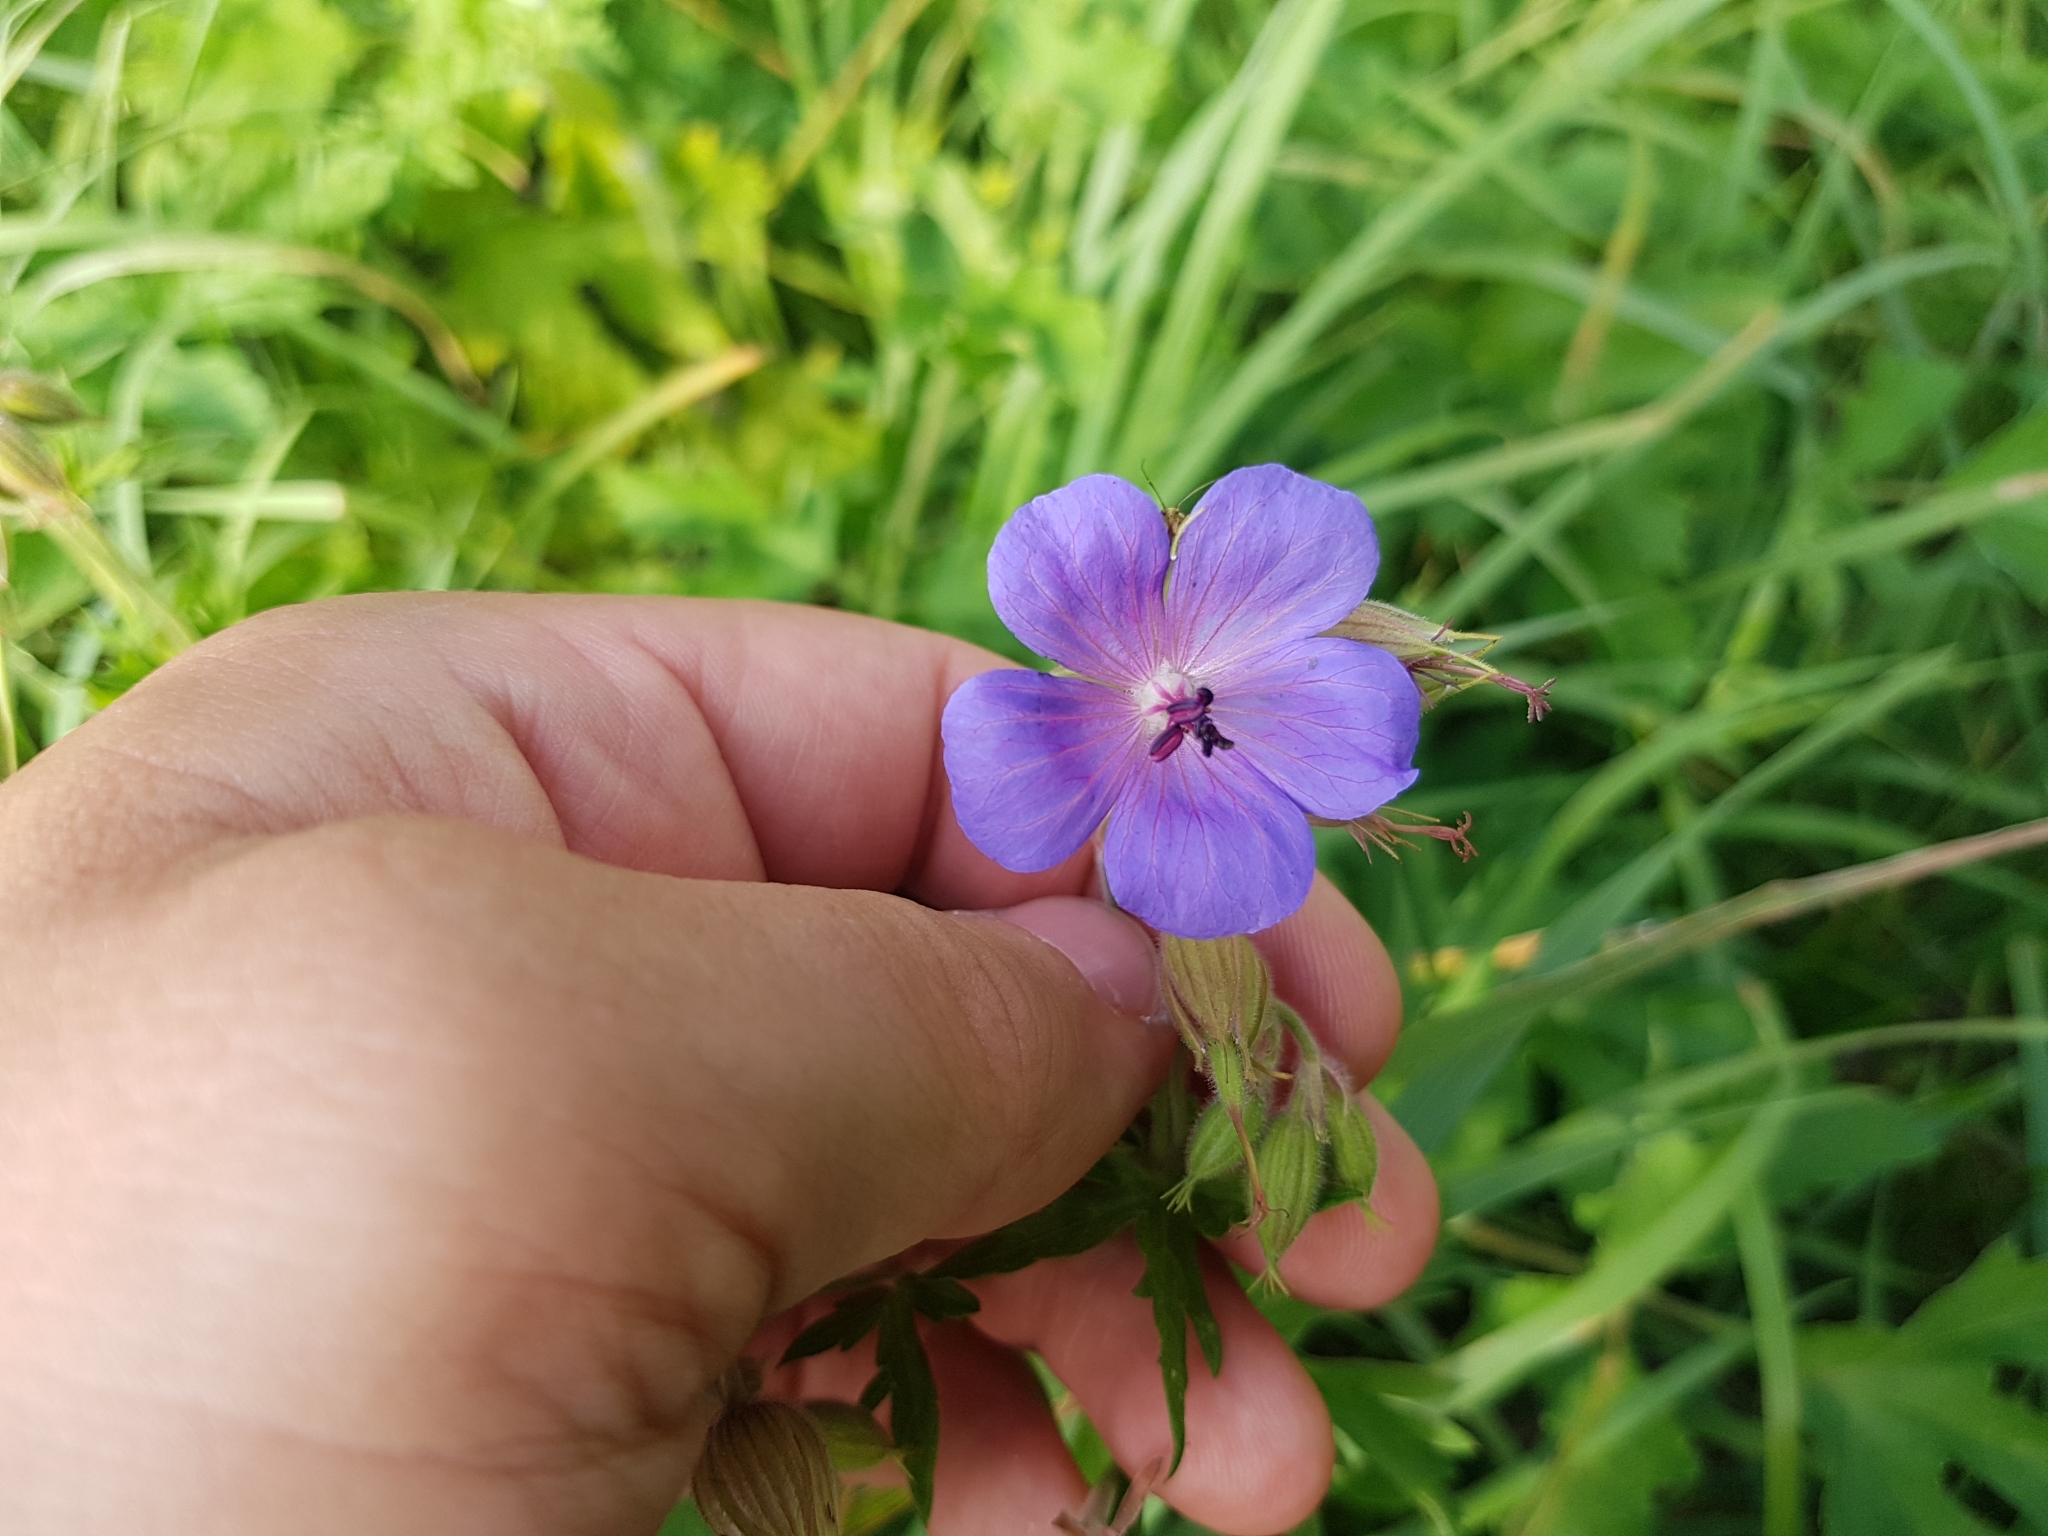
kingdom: Plantae
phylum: Tracheophyta
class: Magnoliopsida
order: Geraniales
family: Geraniaceae
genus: Geranium
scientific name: Geranium pratense
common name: Meadow crane's-bill
